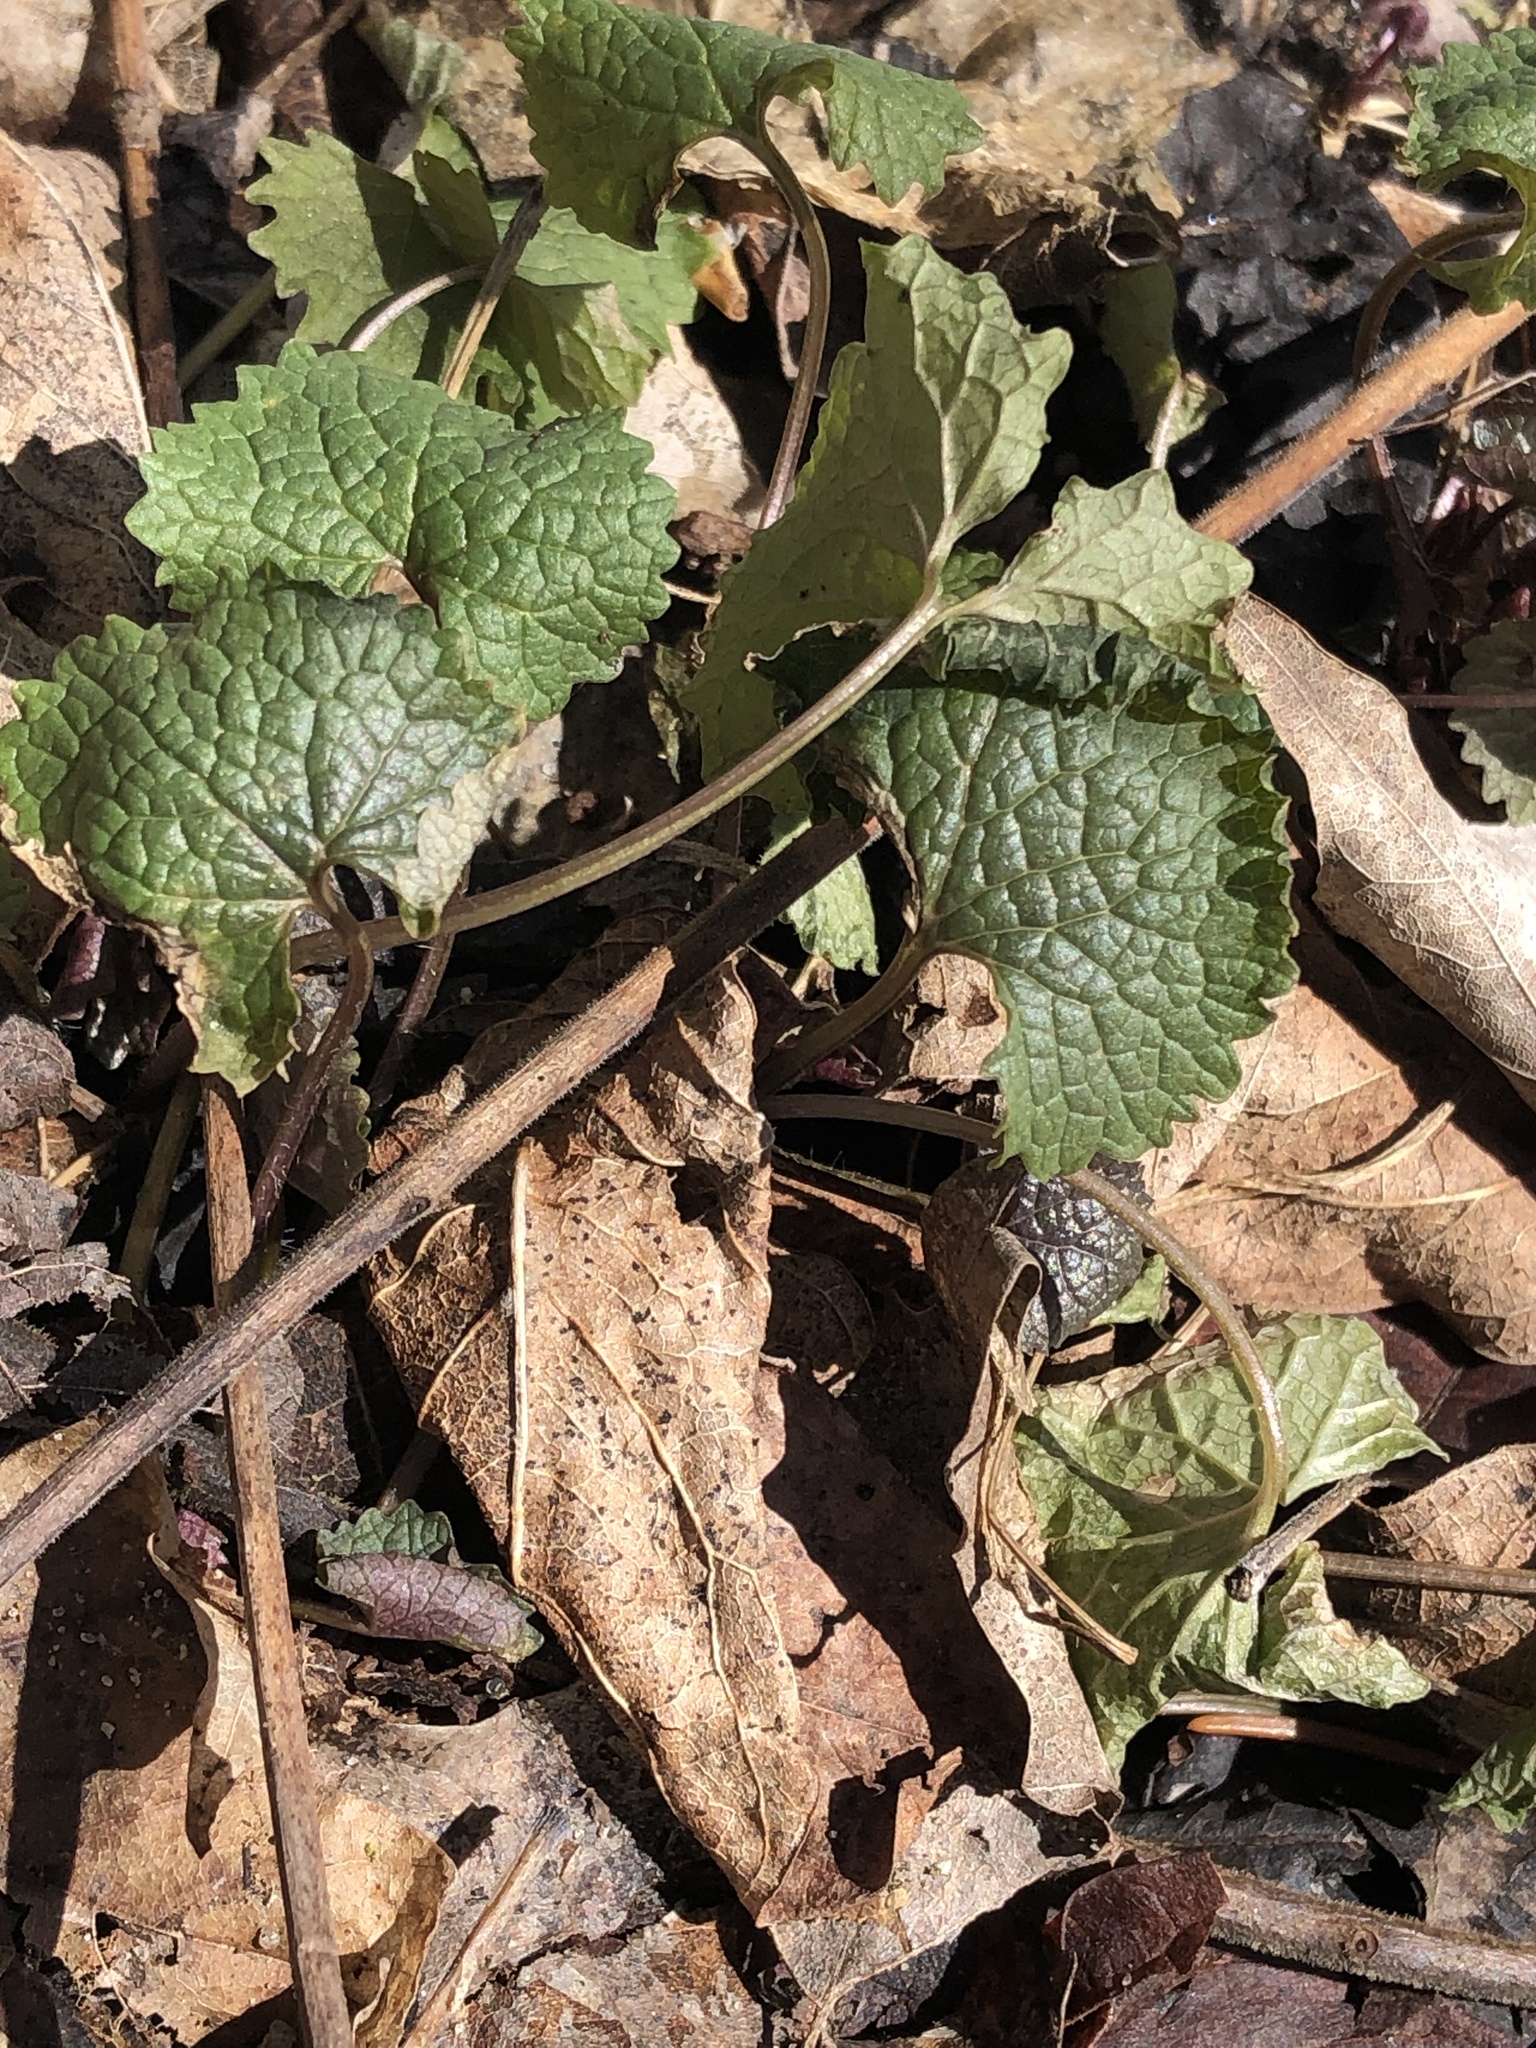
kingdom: Plantae
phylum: Tracheophyta
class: Magnoliopsida
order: Brassicales
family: Brassicaceae
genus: Alliaria
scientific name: Alliaria petiolata
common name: Garlic mustard
